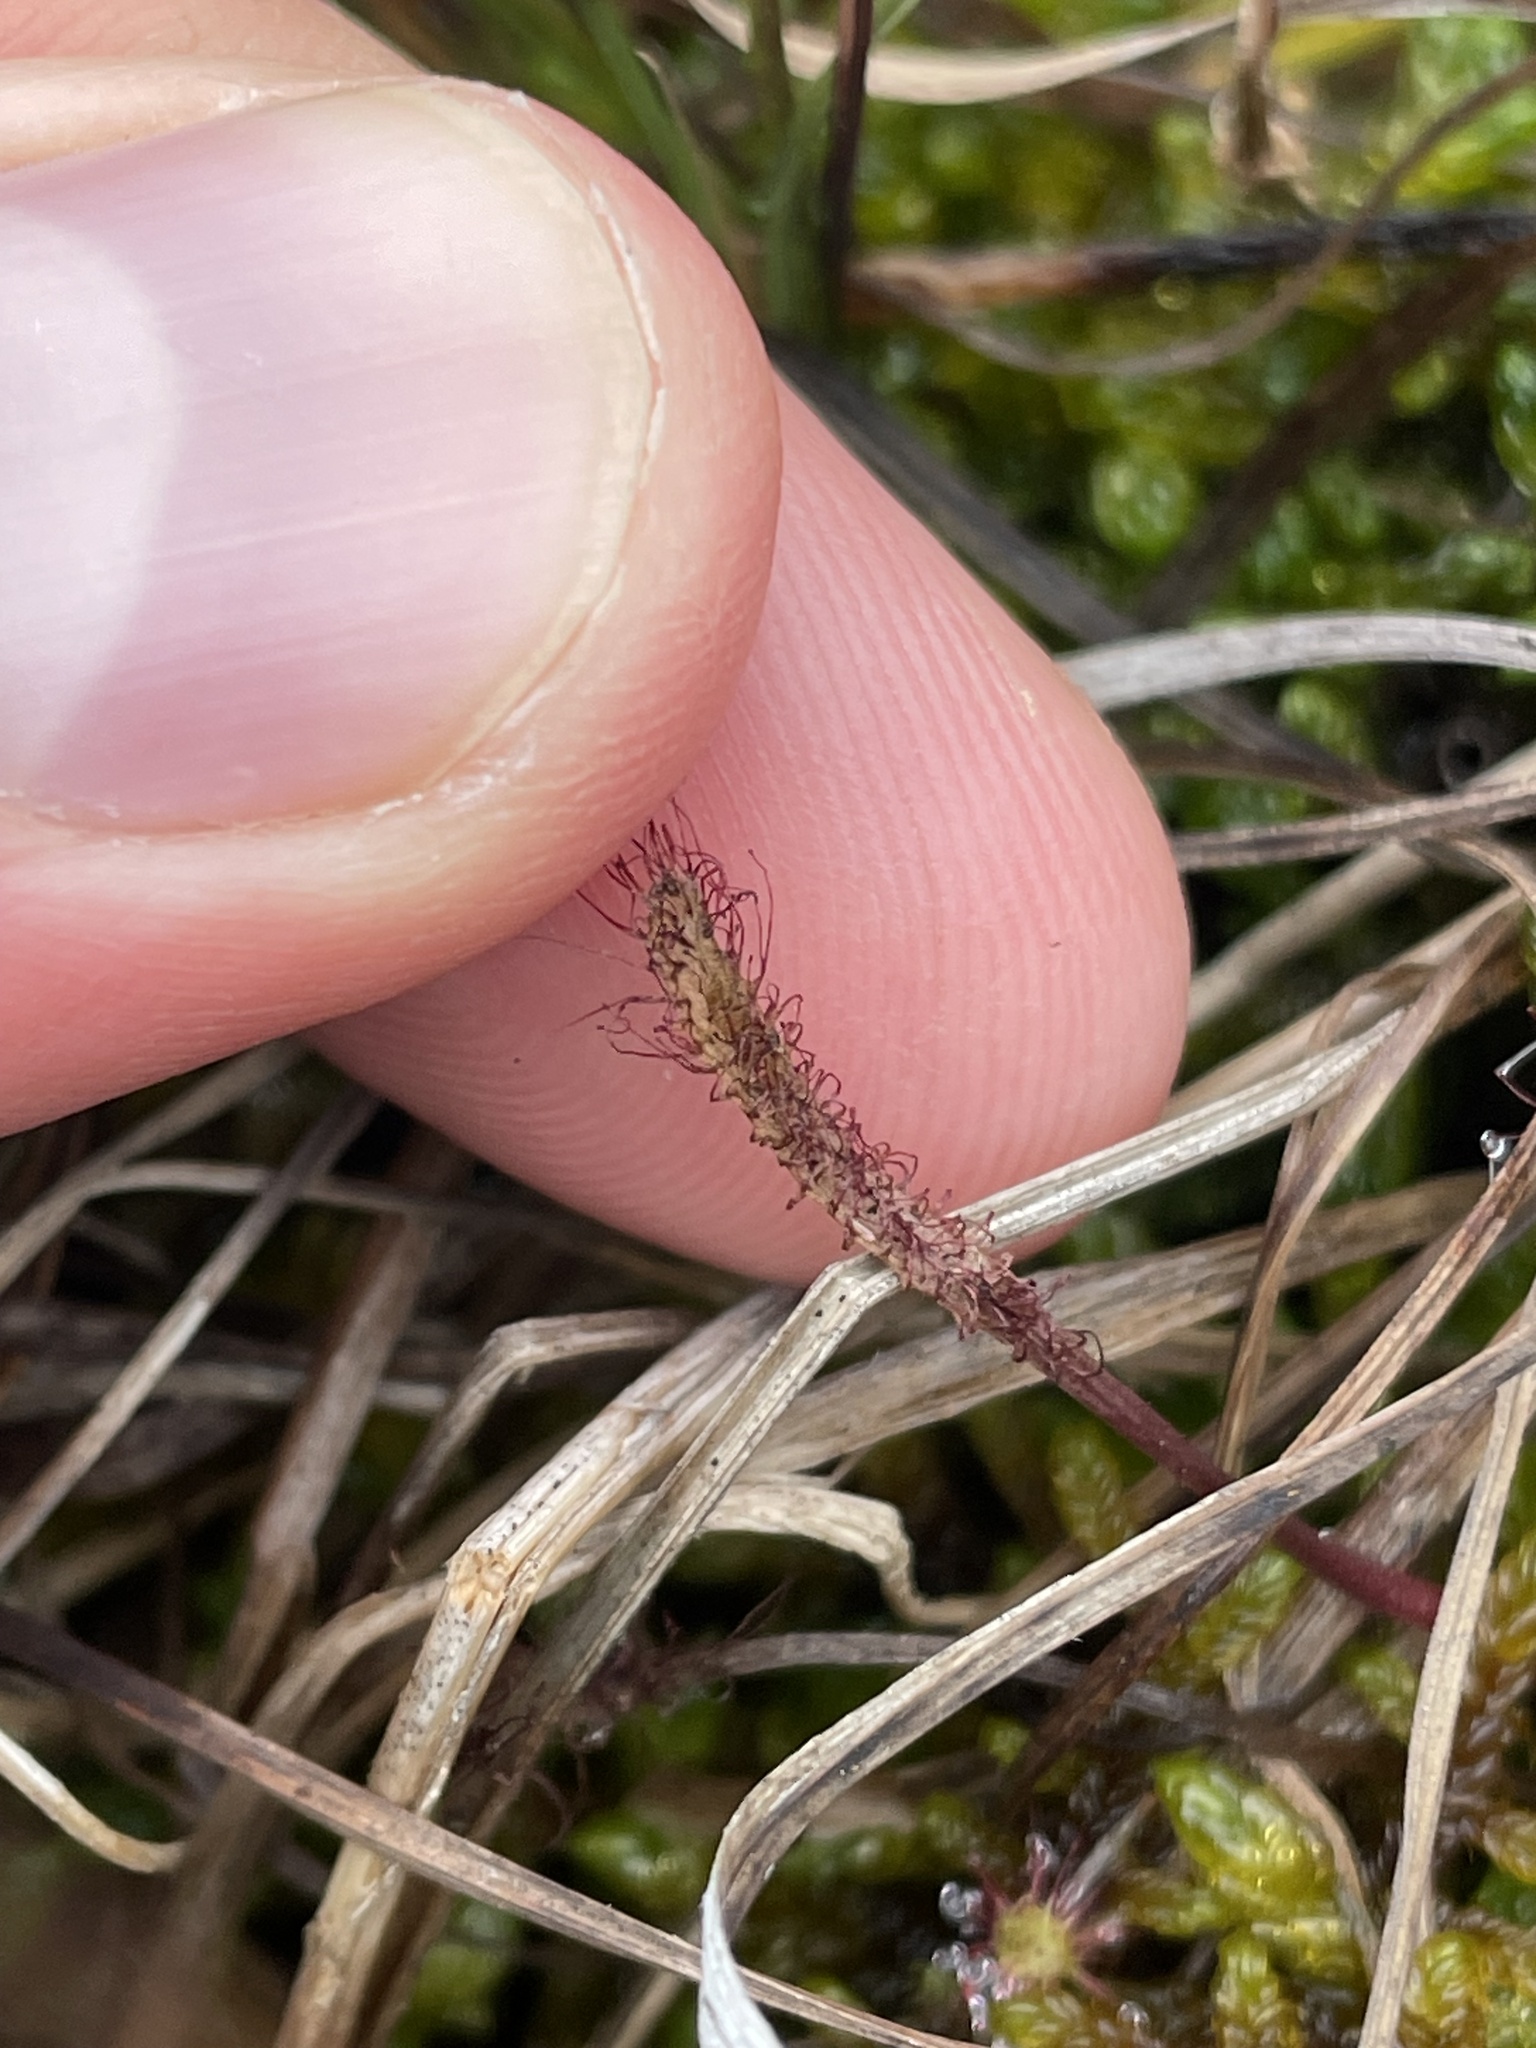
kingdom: Plantae
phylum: Tracheophyta
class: Magnoliopsida
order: Caryophyllales
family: Droseraceae
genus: Drosera
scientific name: Drosera linearis
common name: Linear-leaved sundew
